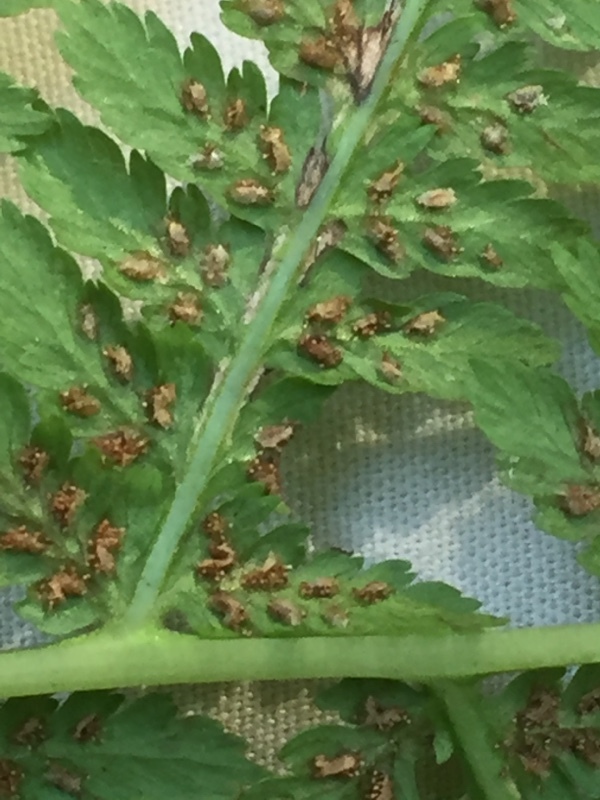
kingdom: Plantae
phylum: Tracheophyta
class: Polypodiopsida
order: Polypodiales
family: Athyriaceae
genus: Athyrium
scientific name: Athyrium filix-femina
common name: Lady fern
